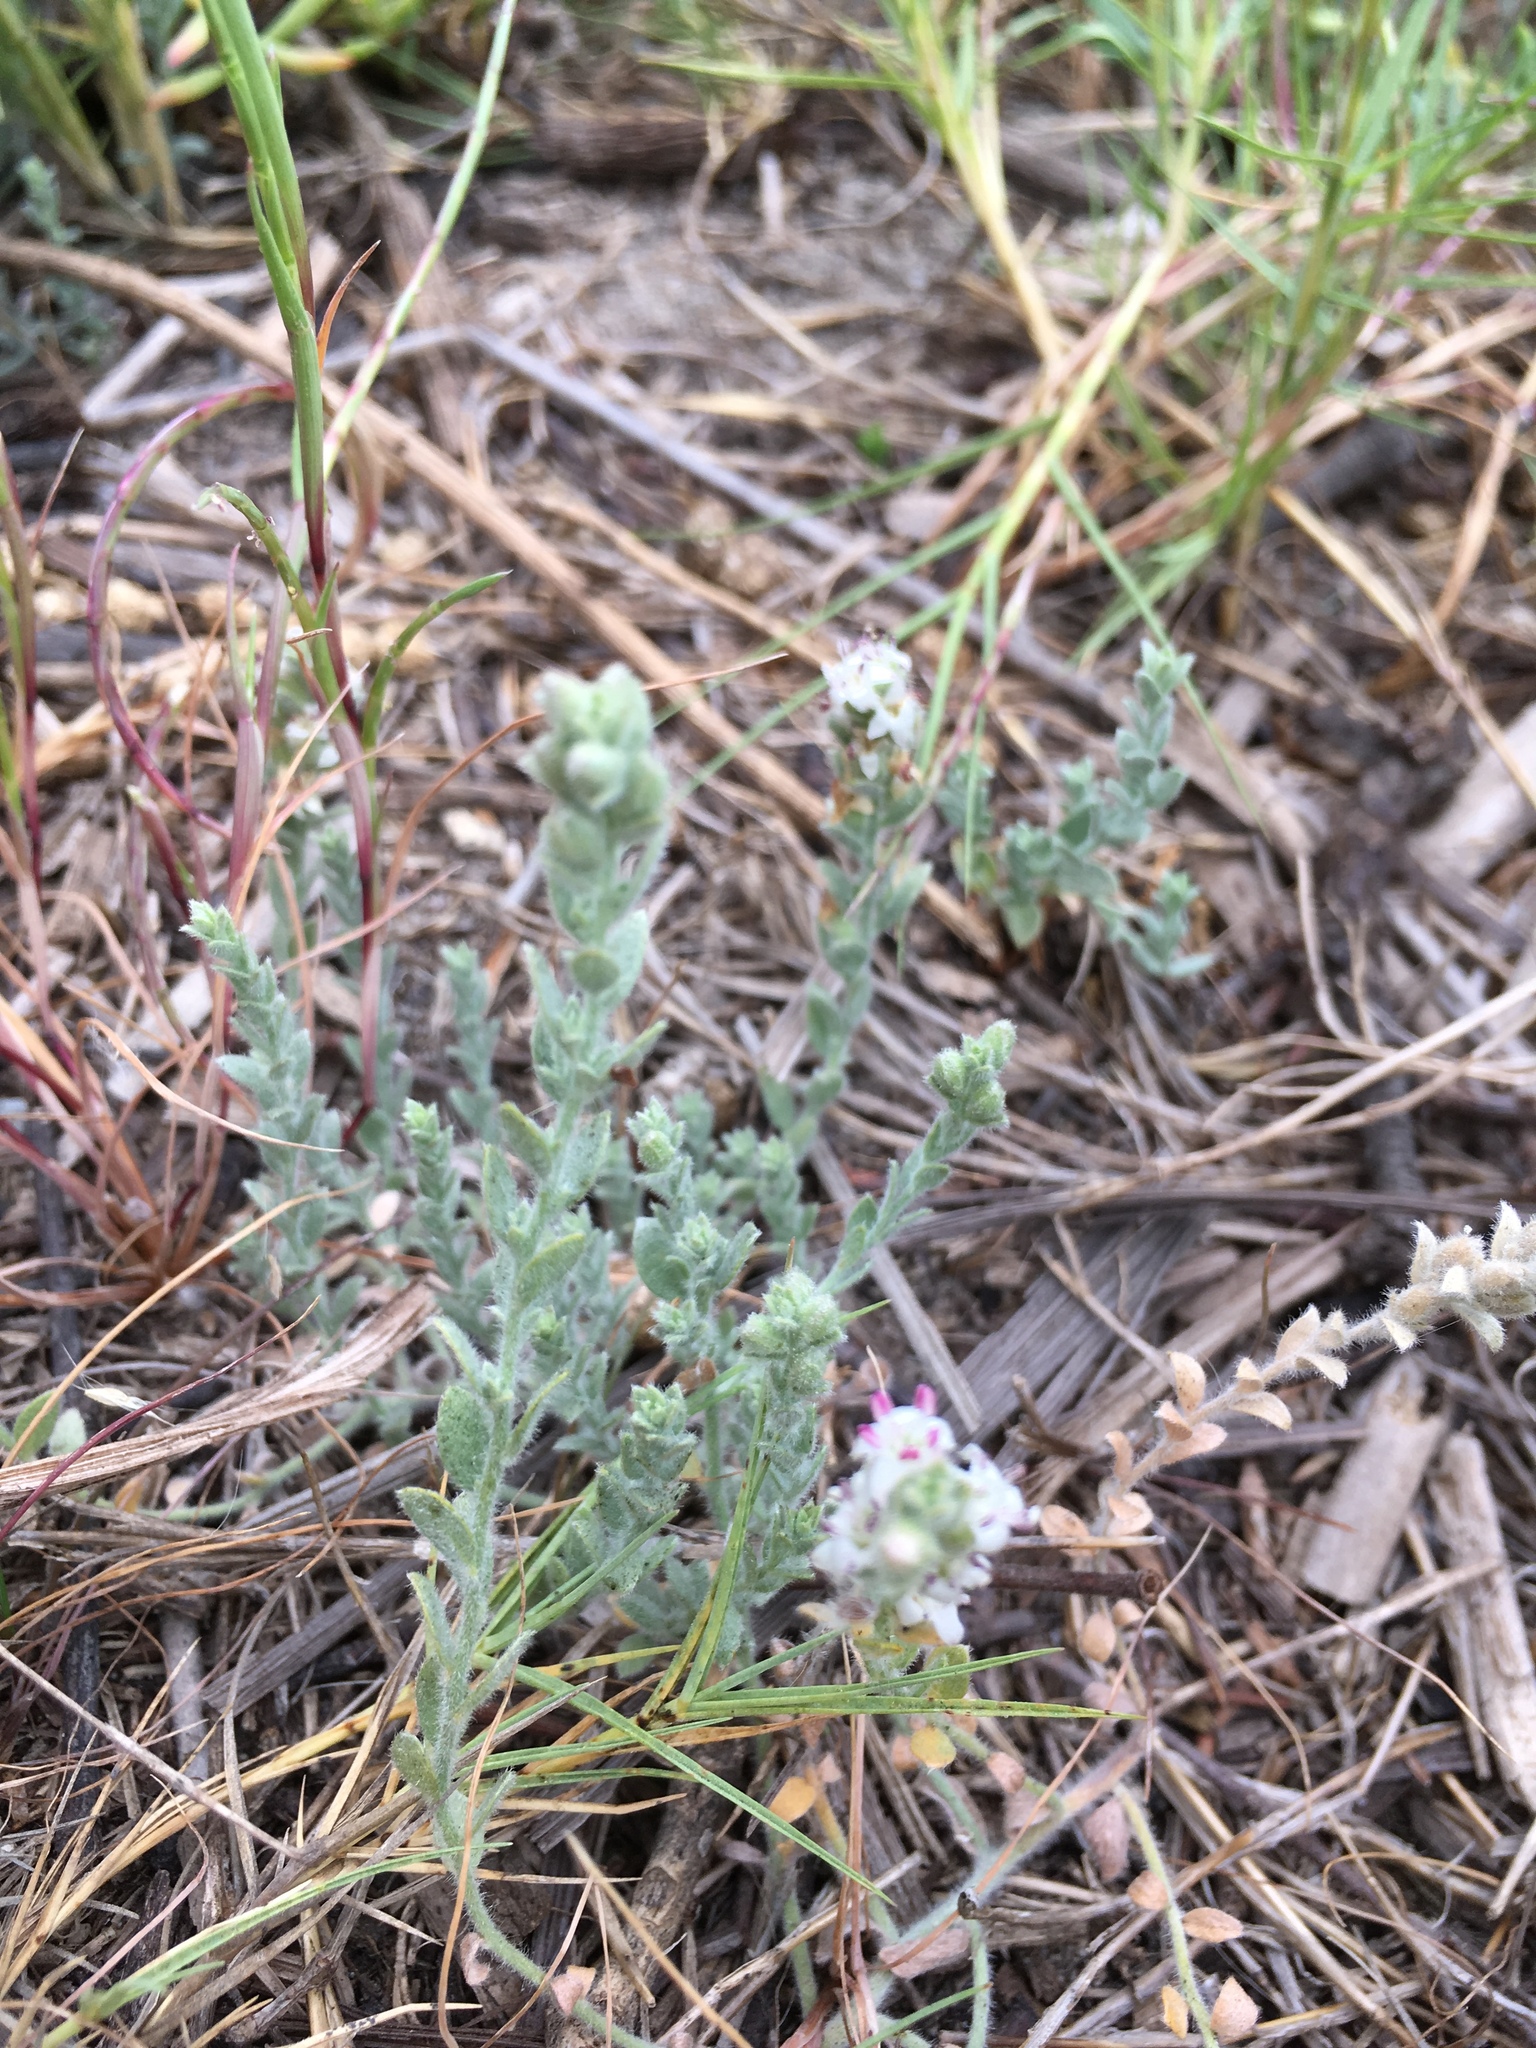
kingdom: Plantae
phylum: Tracheophyta
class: Magnoliopsida
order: Solanales
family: Convolvulaceae
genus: Cressa
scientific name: Cressa truxillensis
